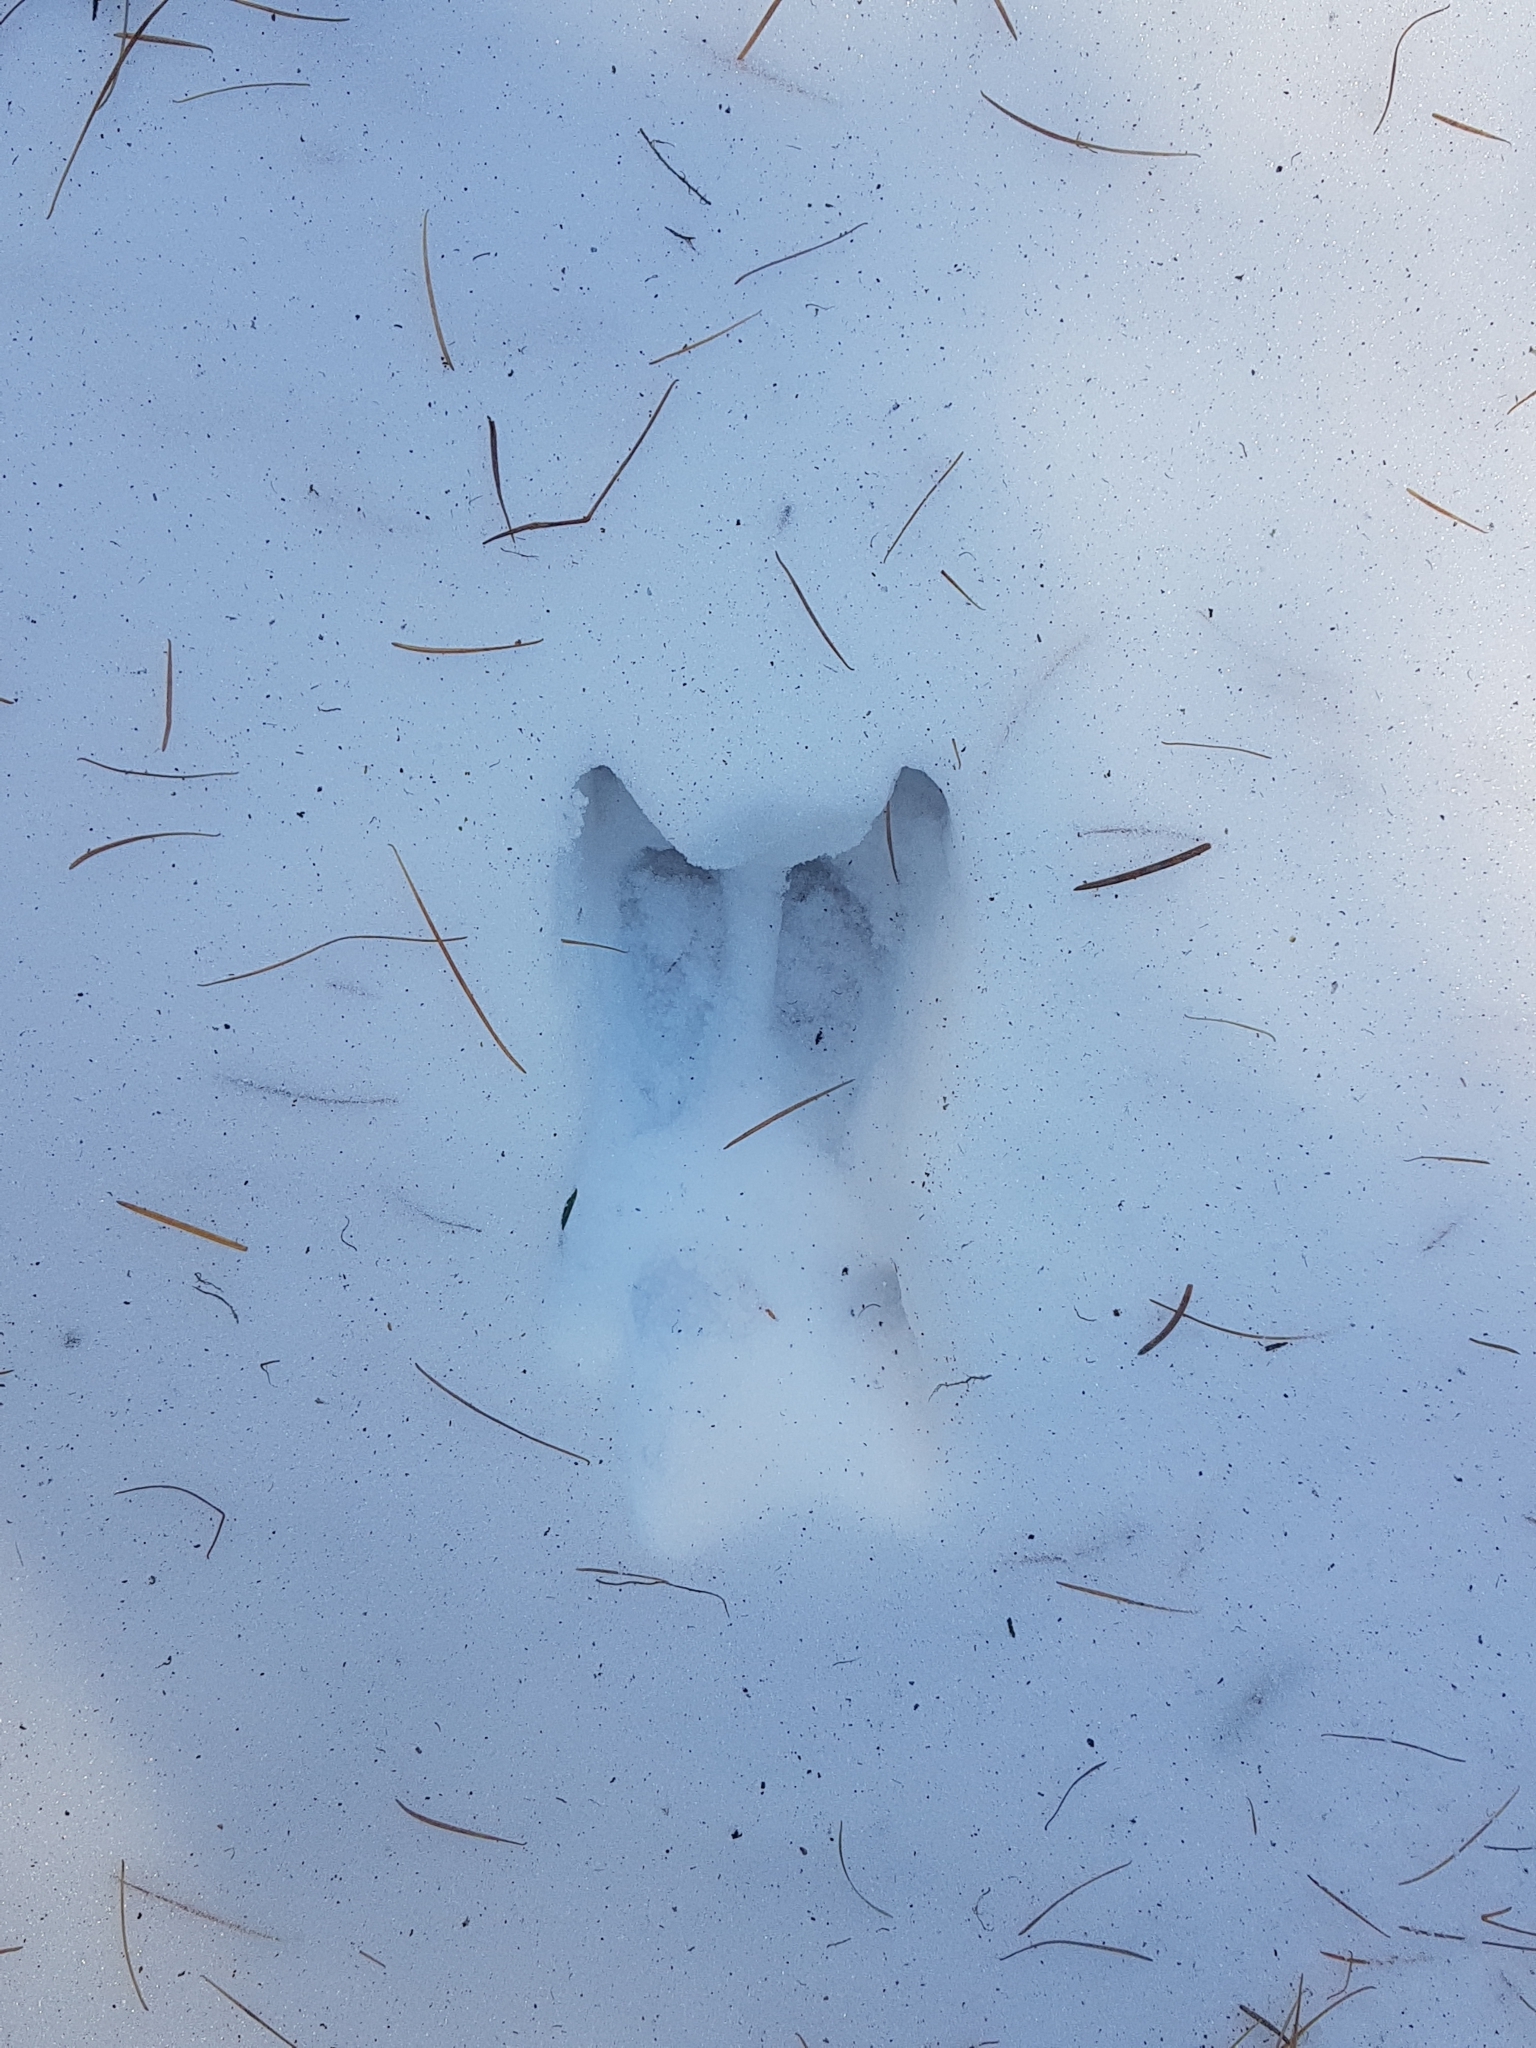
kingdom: Animalia
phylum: Chordata
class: Mammalia
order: Artiodactyla
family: Suidae
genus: Sus
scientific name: Sus scrofa
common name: Wild boar
